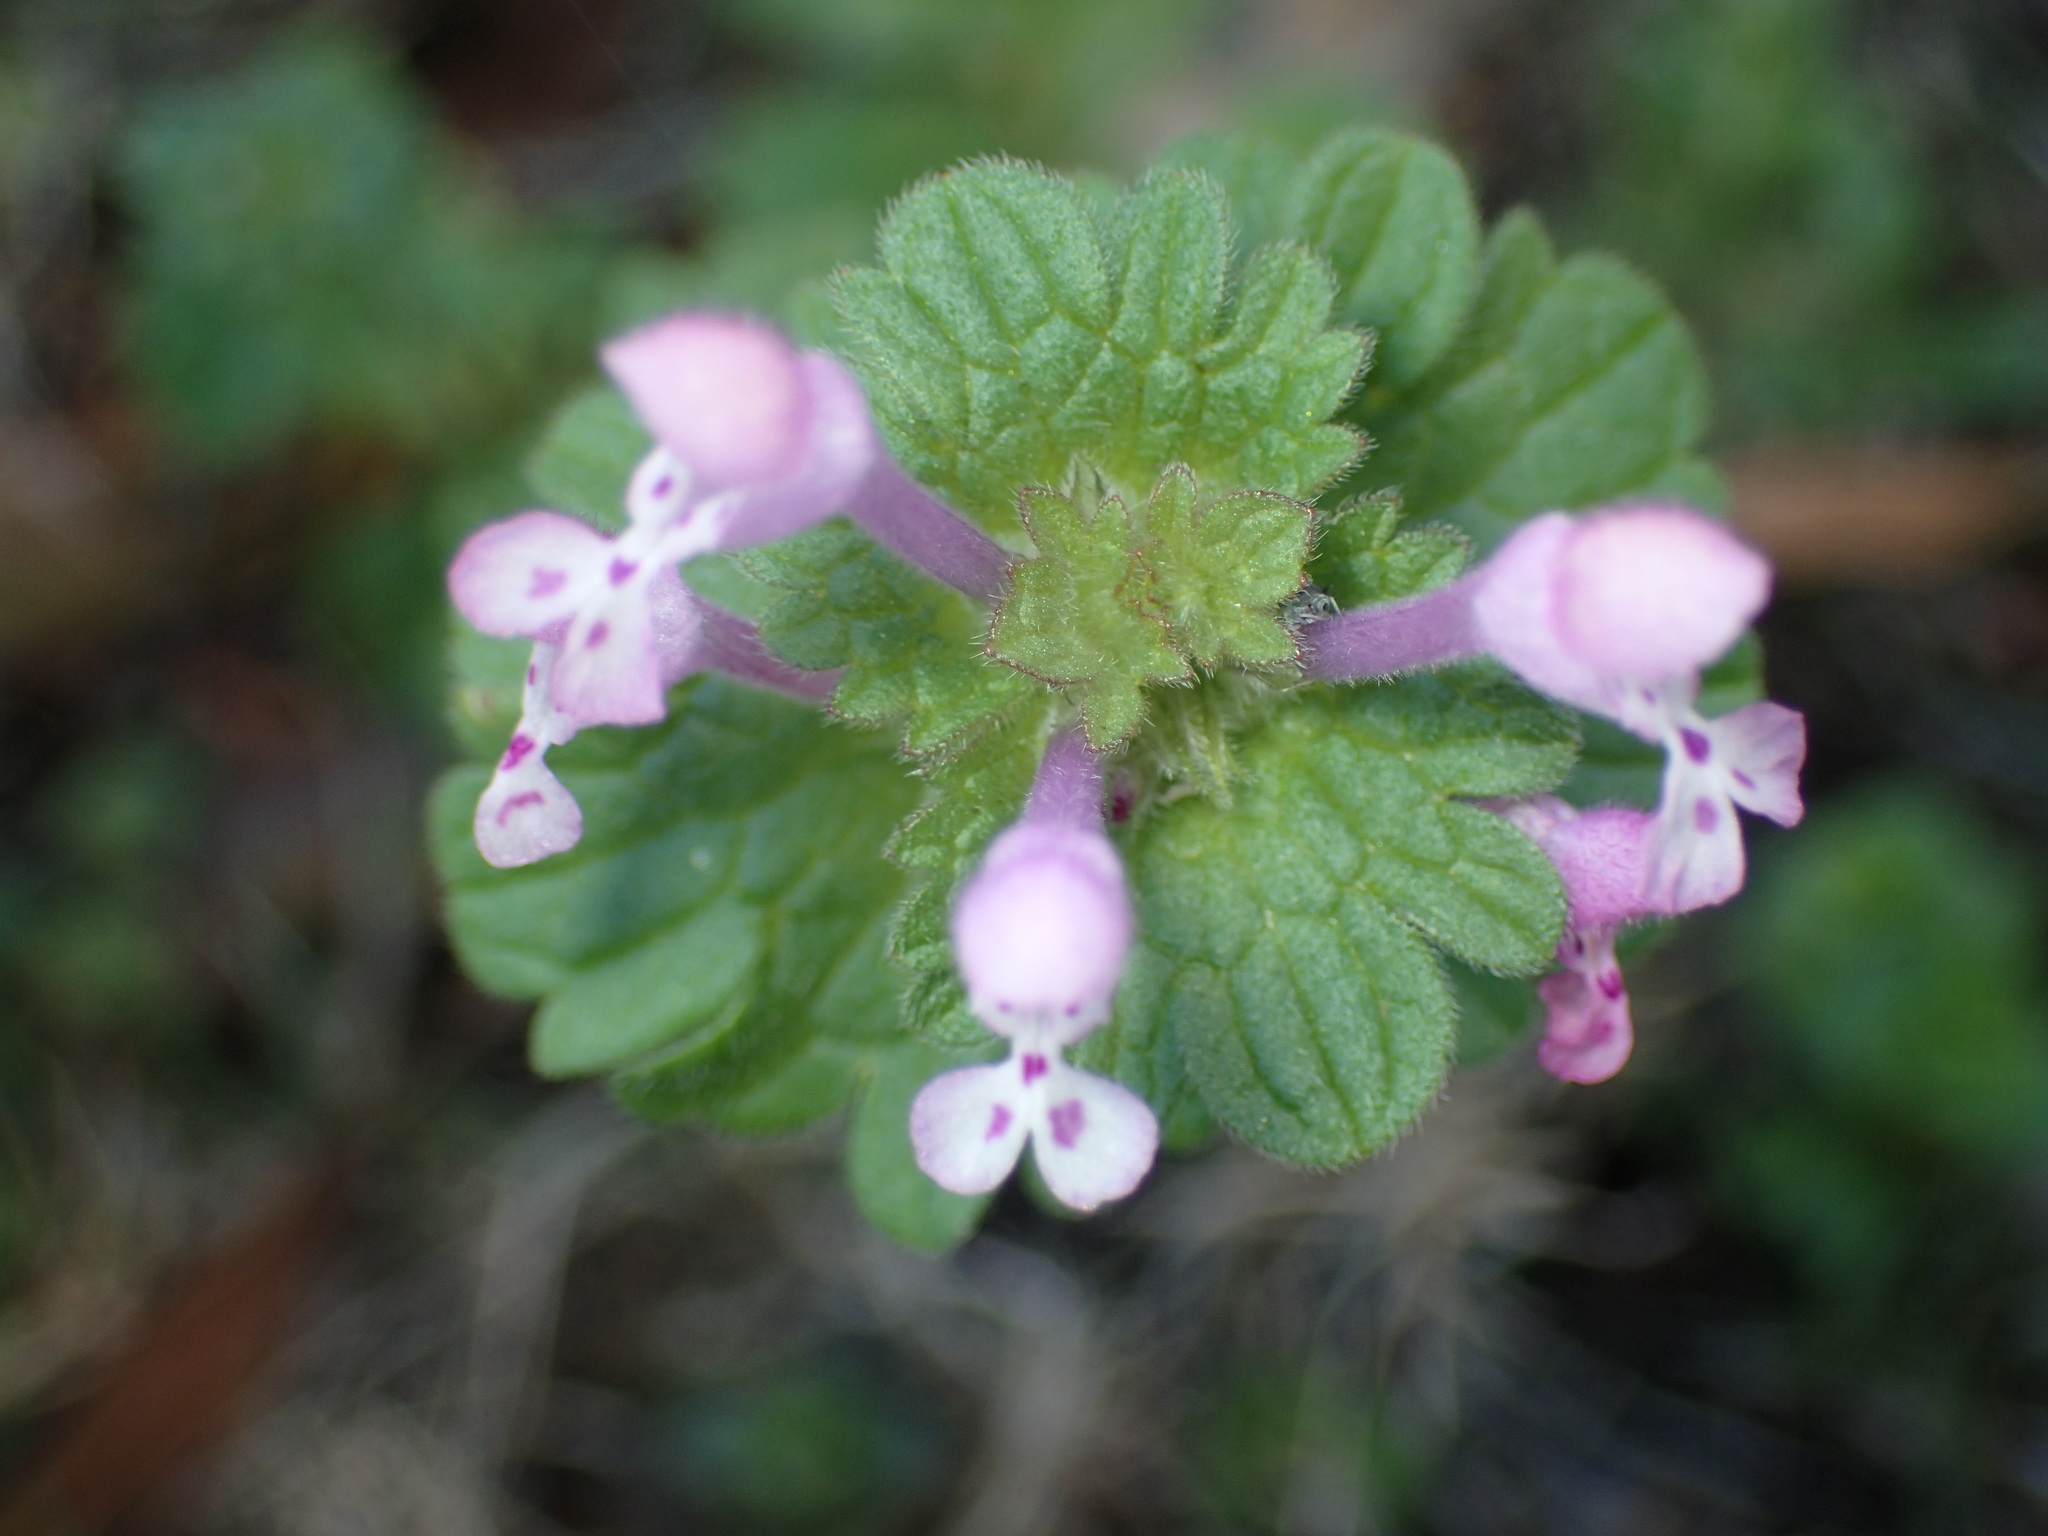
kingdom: Plantae
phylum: Tracheophyta
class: Magnoliopsida
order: Lamiales
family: Lamiaceae
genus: Lamium
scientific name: Lamium amplexicaule
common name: Henbit dead-nettle
